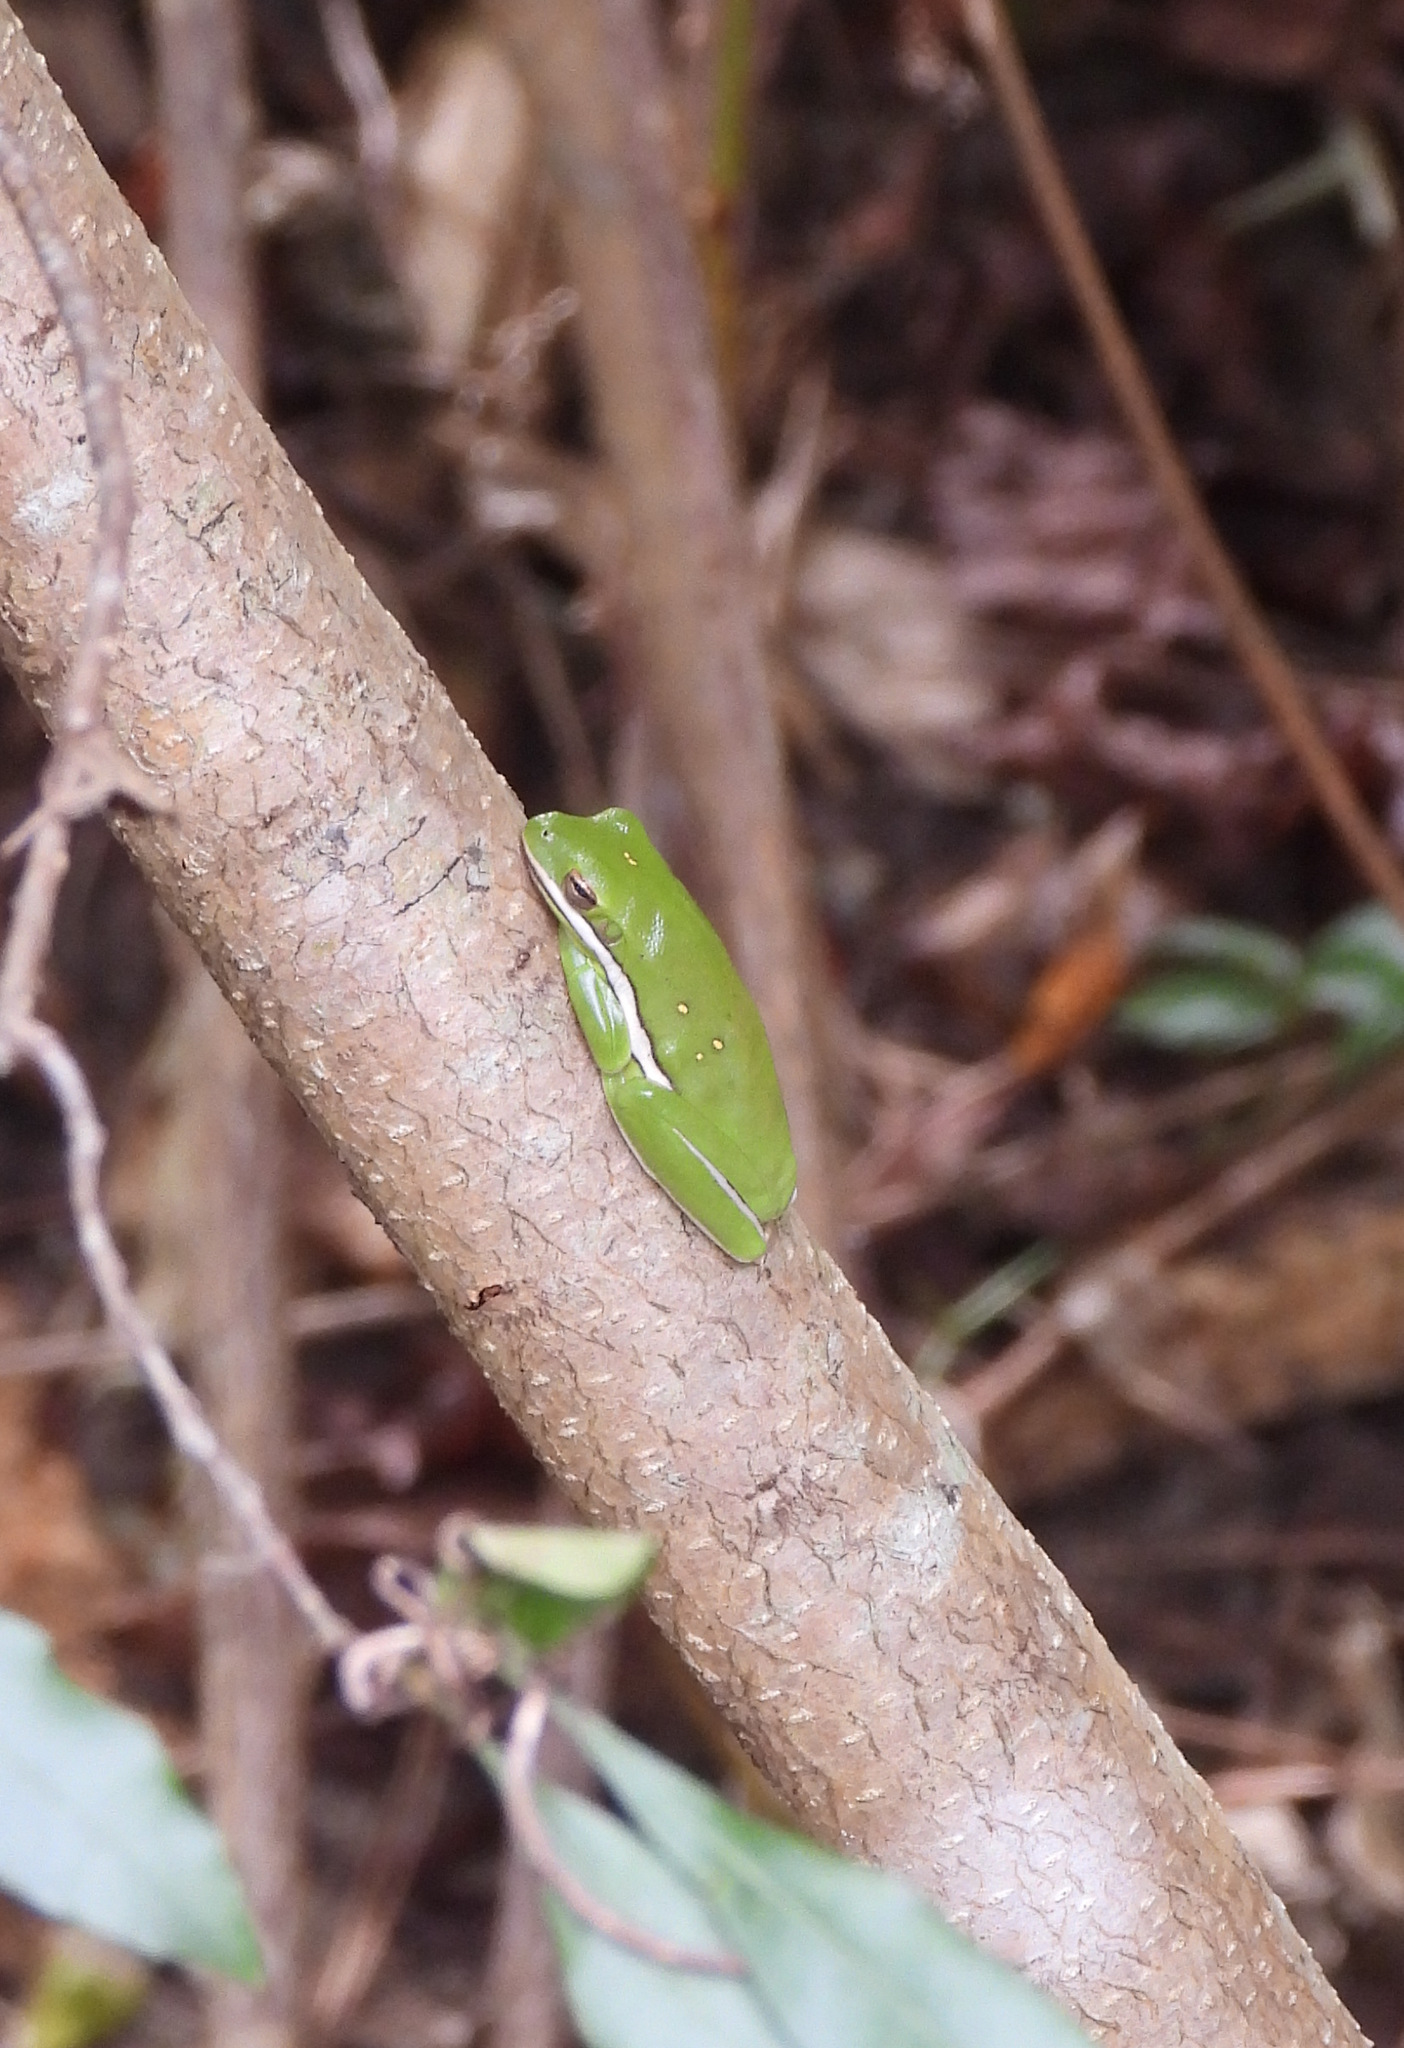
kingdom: Animalia
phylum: Chordata
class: Amphibia
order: Anura
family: Hylidae
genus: Dryophytes
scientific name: Dryophytes cinereus
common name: Green treefrog
